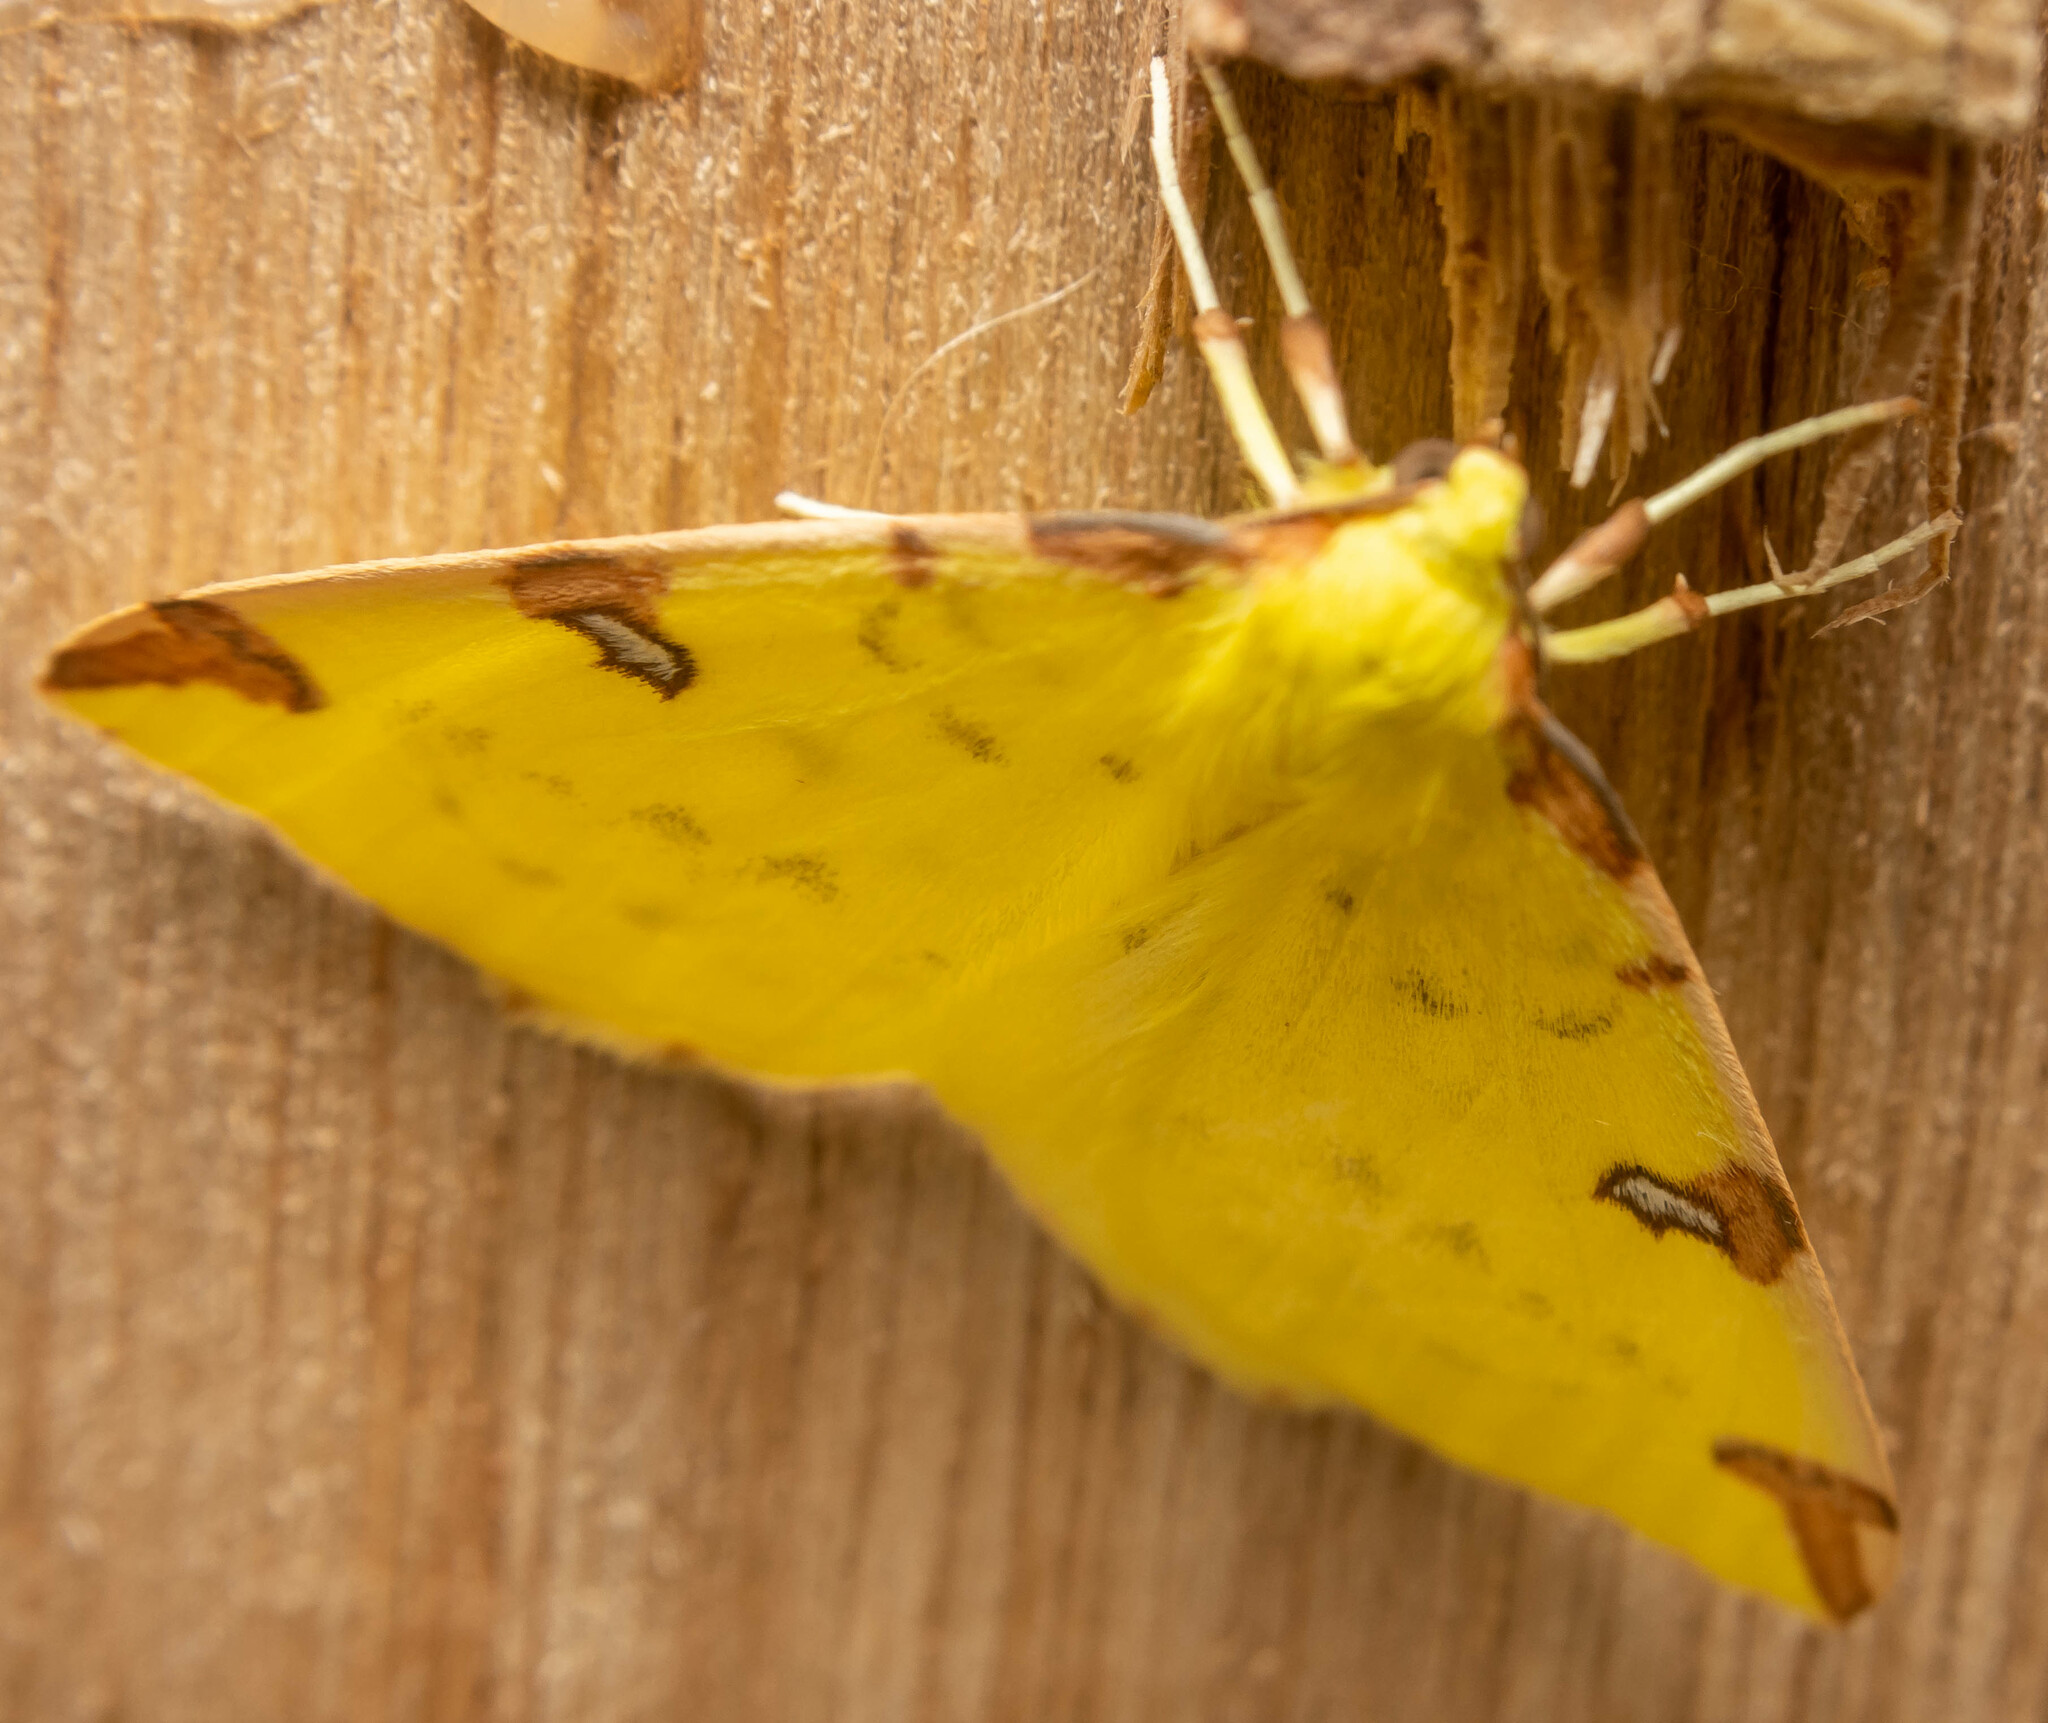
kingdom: Animalia
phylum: Arthropoda
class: Insecta
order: Lepidoptera
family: Geometridae
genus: Opisthograptis
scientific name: Opisthograptis luteolata
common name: Brimstone moth
